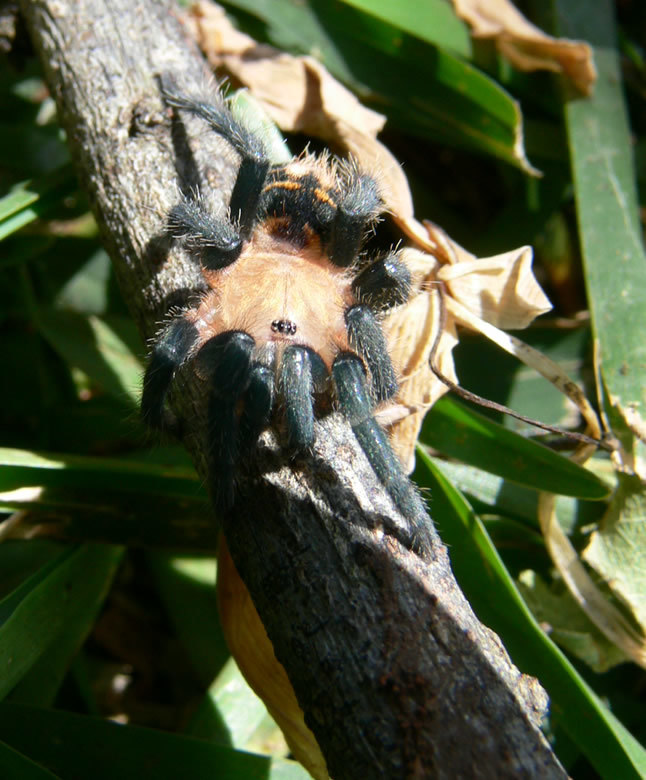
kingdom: Animalia
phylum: Arthropoda
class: Arachnida
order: Araneae
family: Theraphosidae
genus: Davus
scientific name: Davus ruficeps
